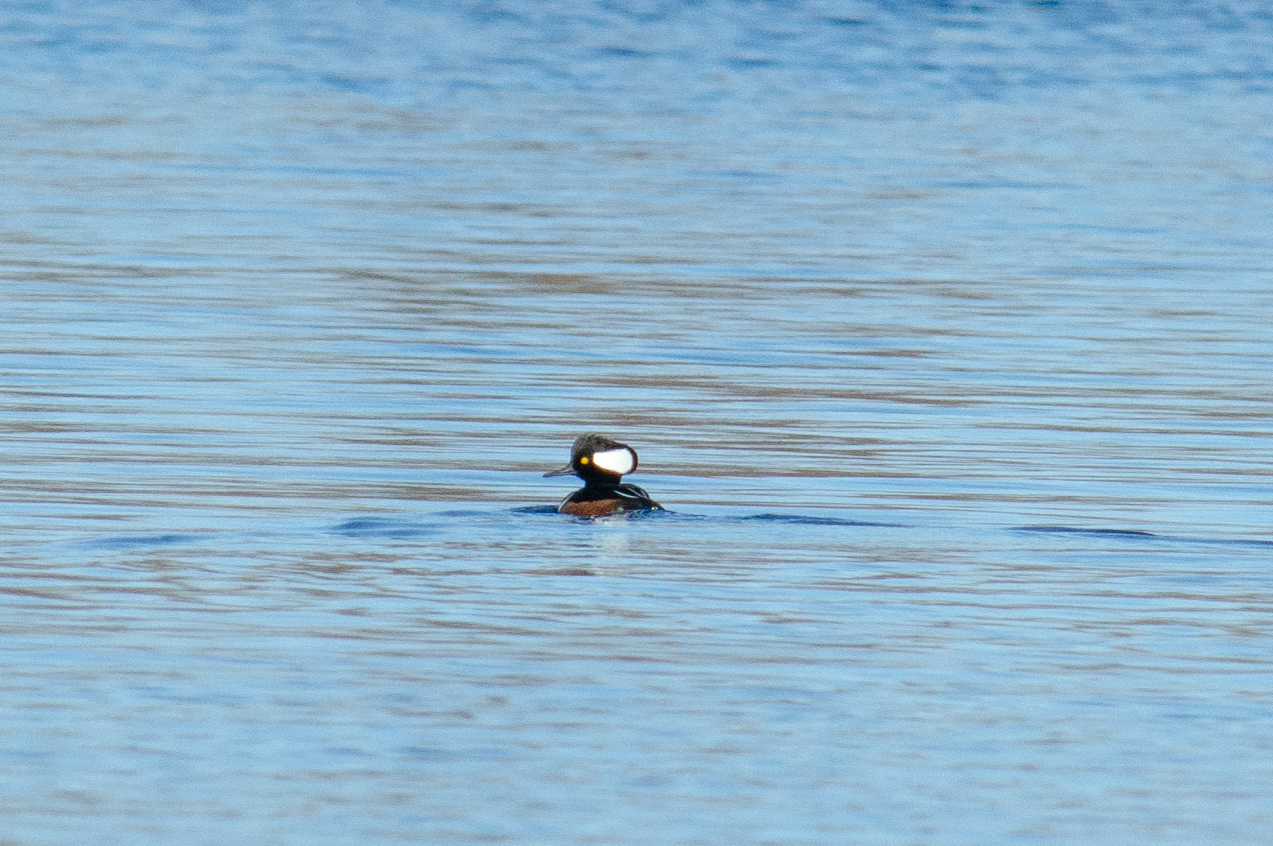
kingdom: Animalia
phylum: Chordata
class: Aves
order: Anseriformes
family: Anatidae
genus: Lophodytes
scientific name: Lophodytes cucullatus
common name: Hooded merganser
